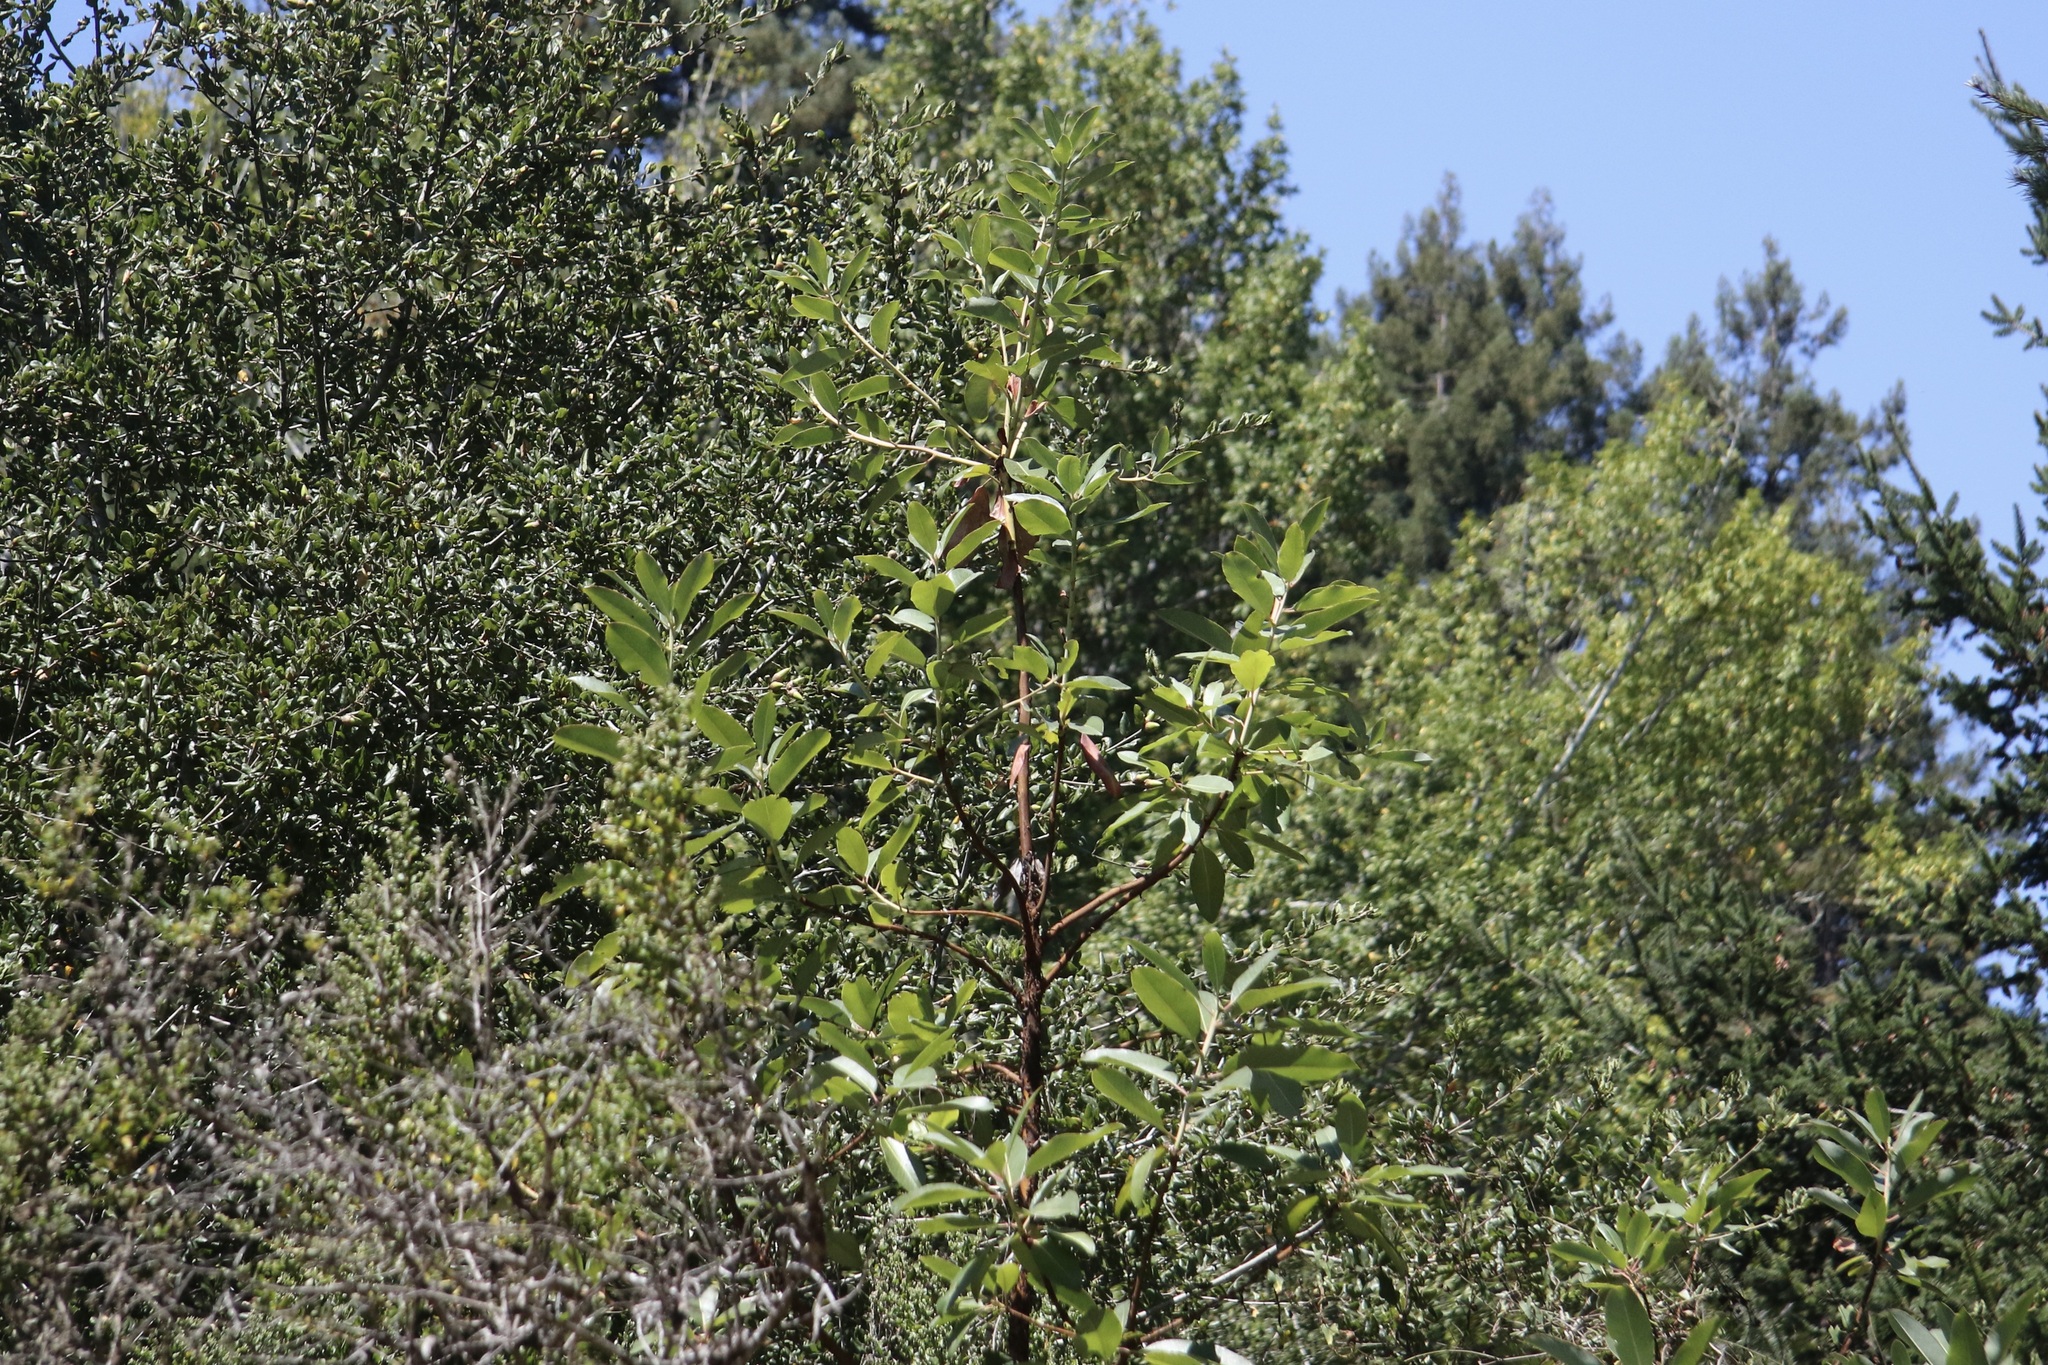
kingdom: Plantae
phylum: Tracheophyta
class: Magnoliopsida
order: Ericales
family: Ericaceae
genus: Arbutus
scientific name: Arbutus menziesii
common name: Pacific madrone
